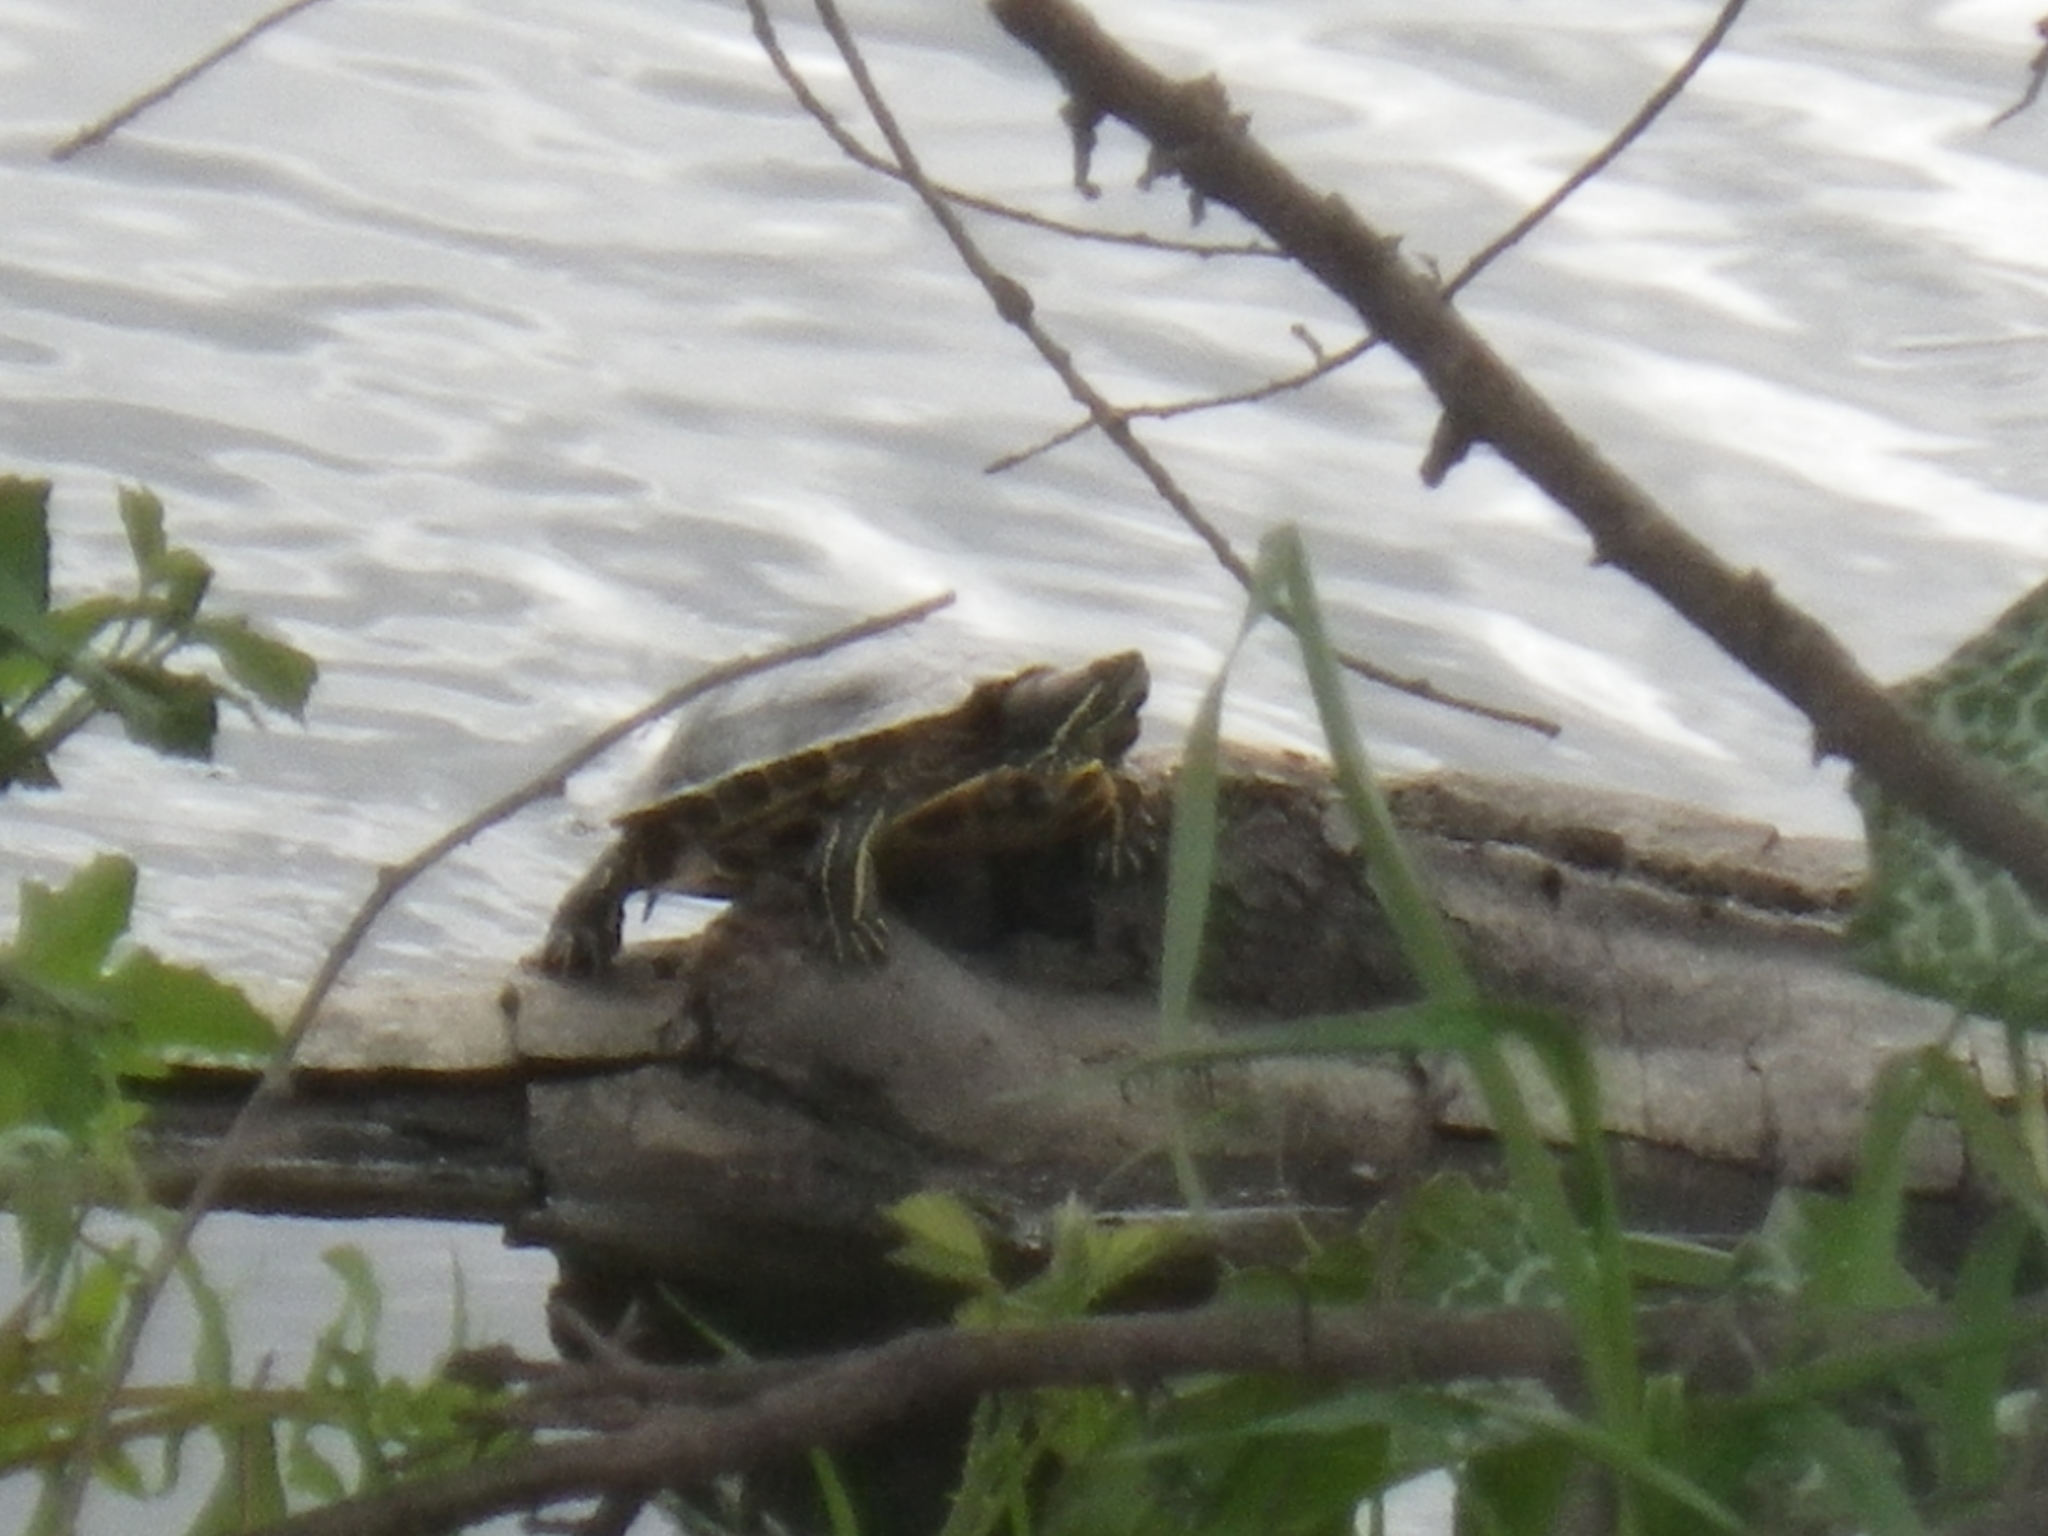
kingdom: Animalia
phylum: Chordata
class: Testudines
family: Emydidae
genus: Trachemys
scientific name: Trachemys scripta
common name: Slider
